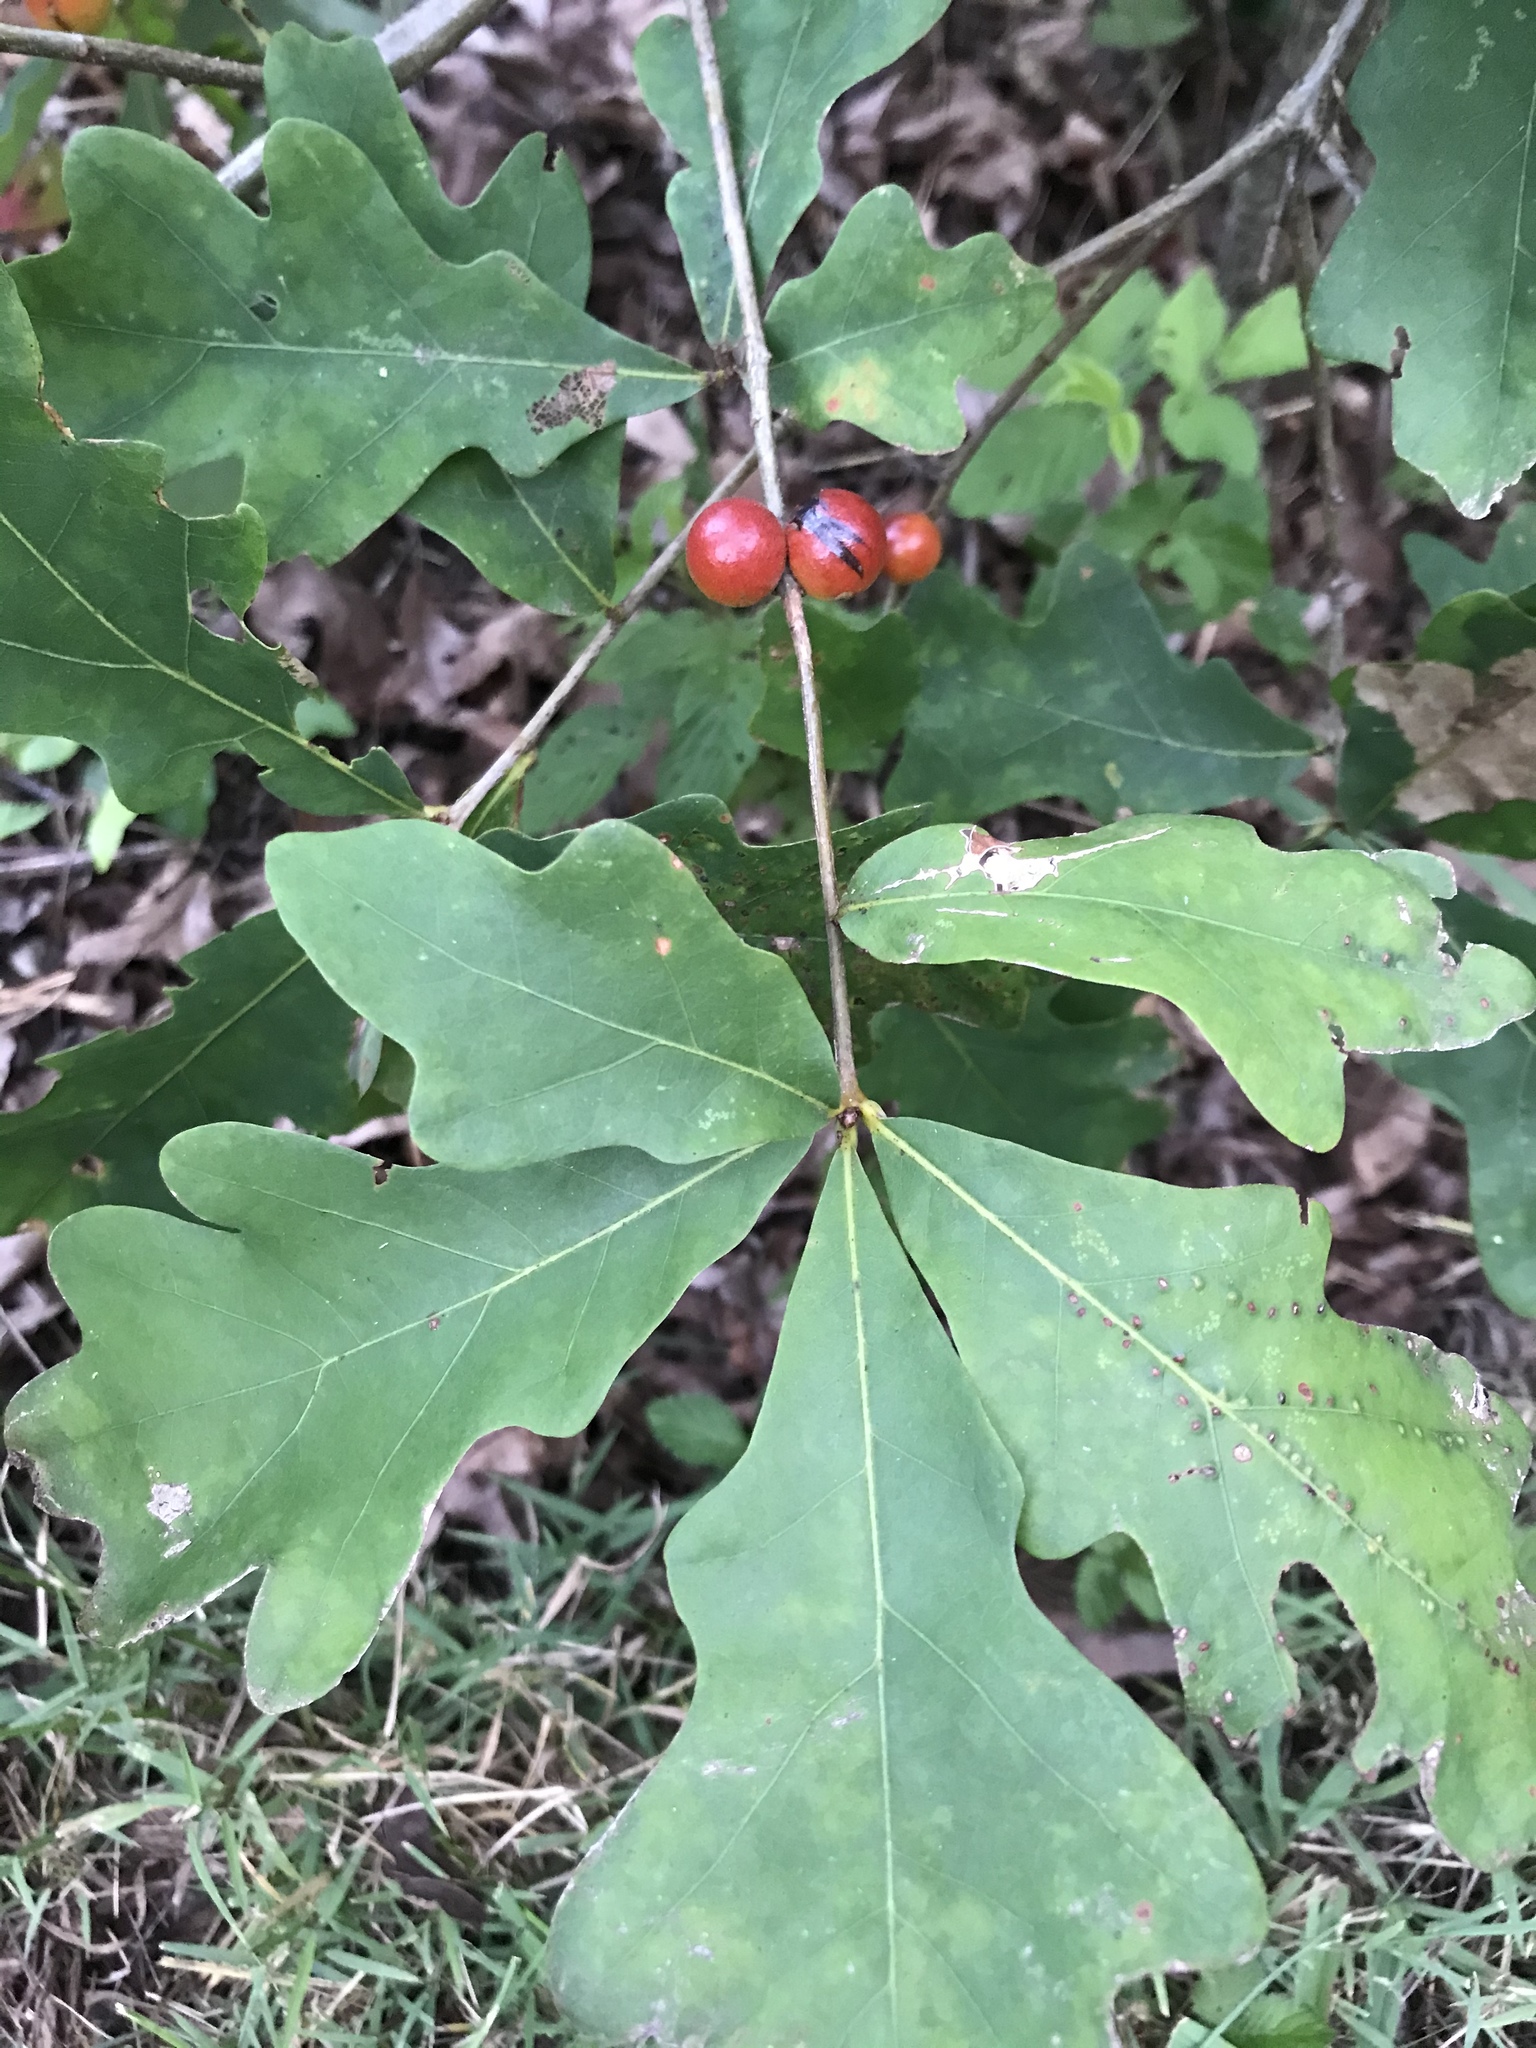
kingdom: Animalia
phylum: Arthropoda
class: Insecta
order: Hymenoptera
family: Cynipidae
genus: Disholcaspis
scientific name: Disholcaspis quercusglobulus
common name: Round bullet gall wasp
